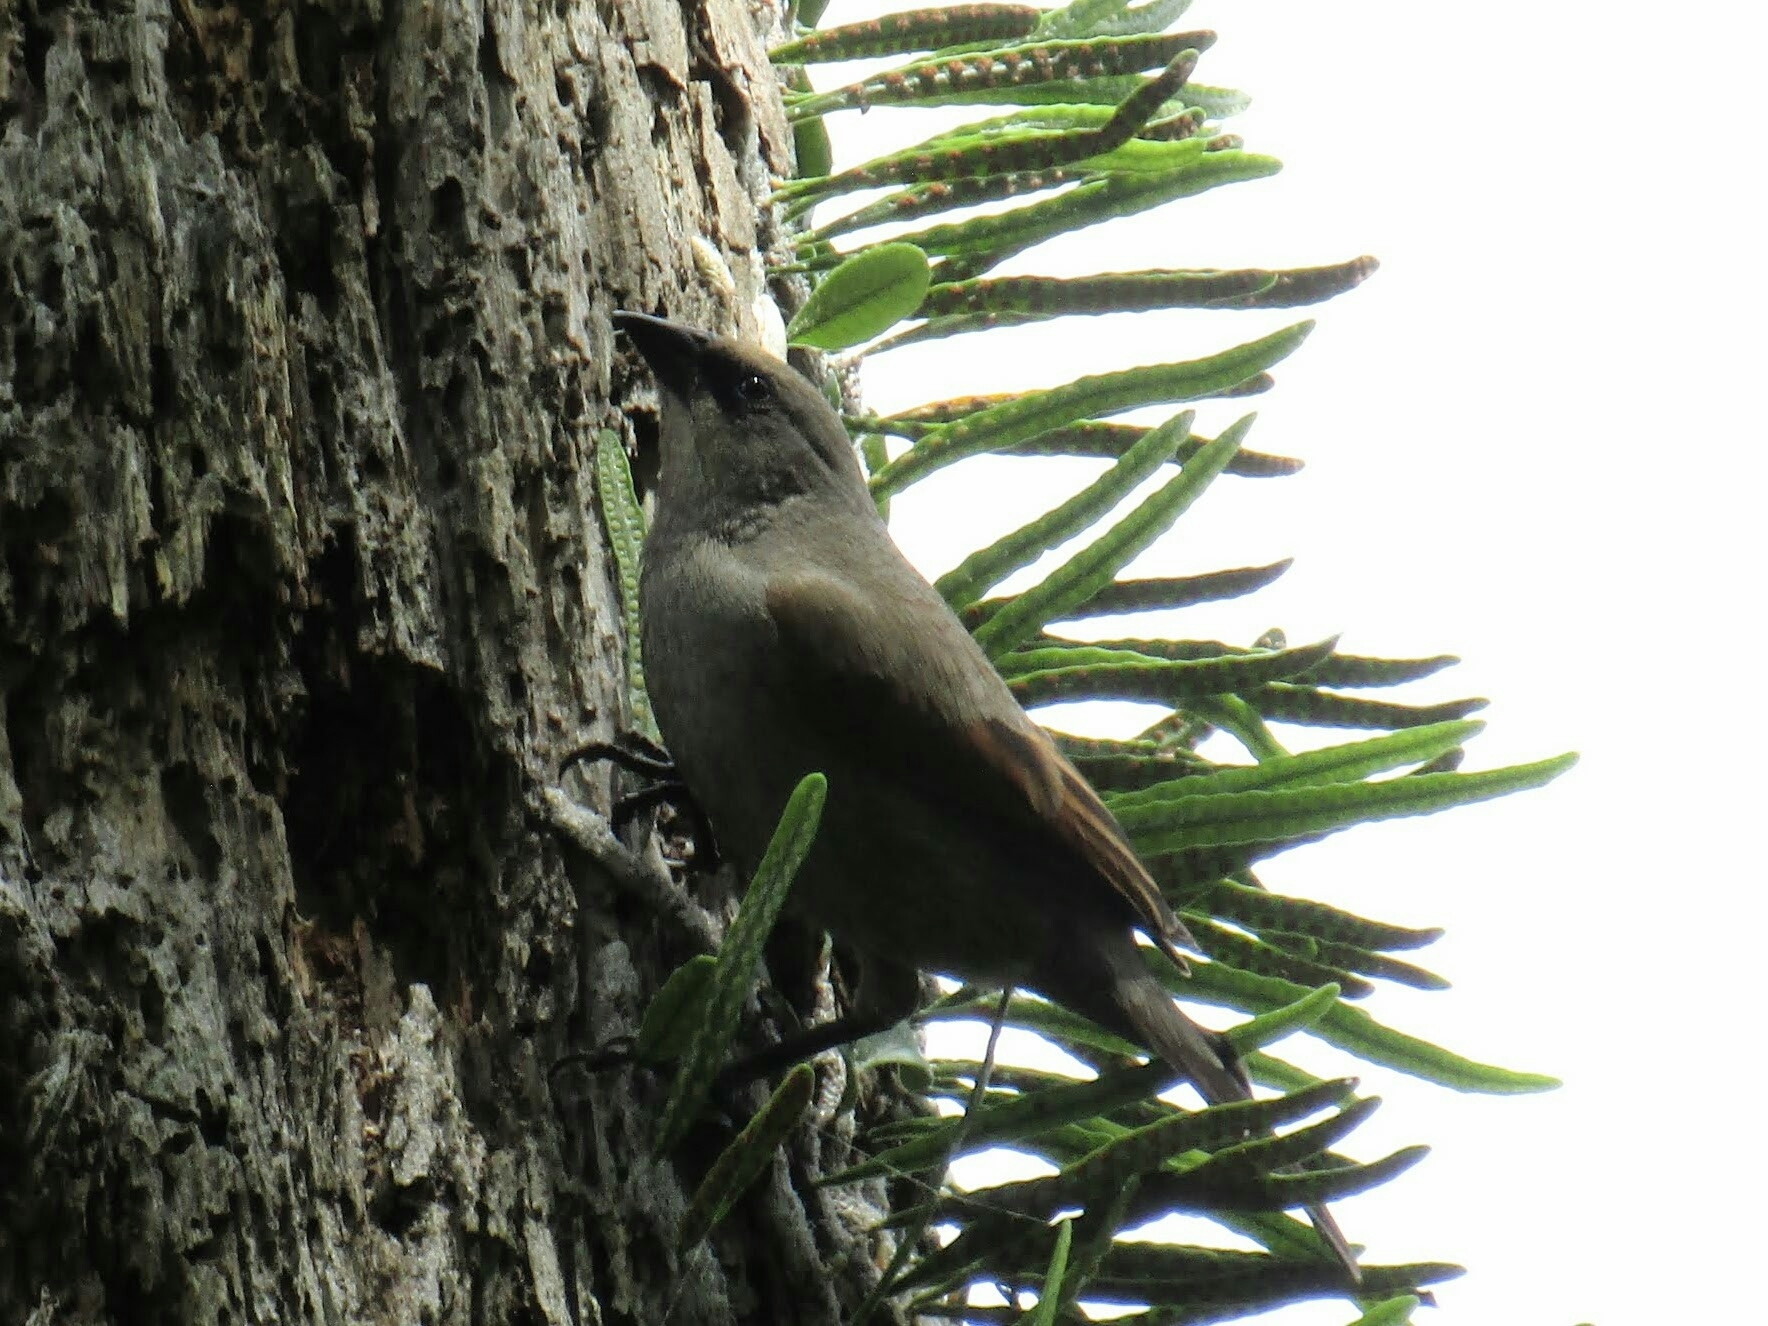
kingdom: Animalia
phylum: Chordata
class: Aves
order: Passeriformes
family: Icteridae
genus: Agelaioides
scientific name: Agelaioides badius
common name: Baywing
